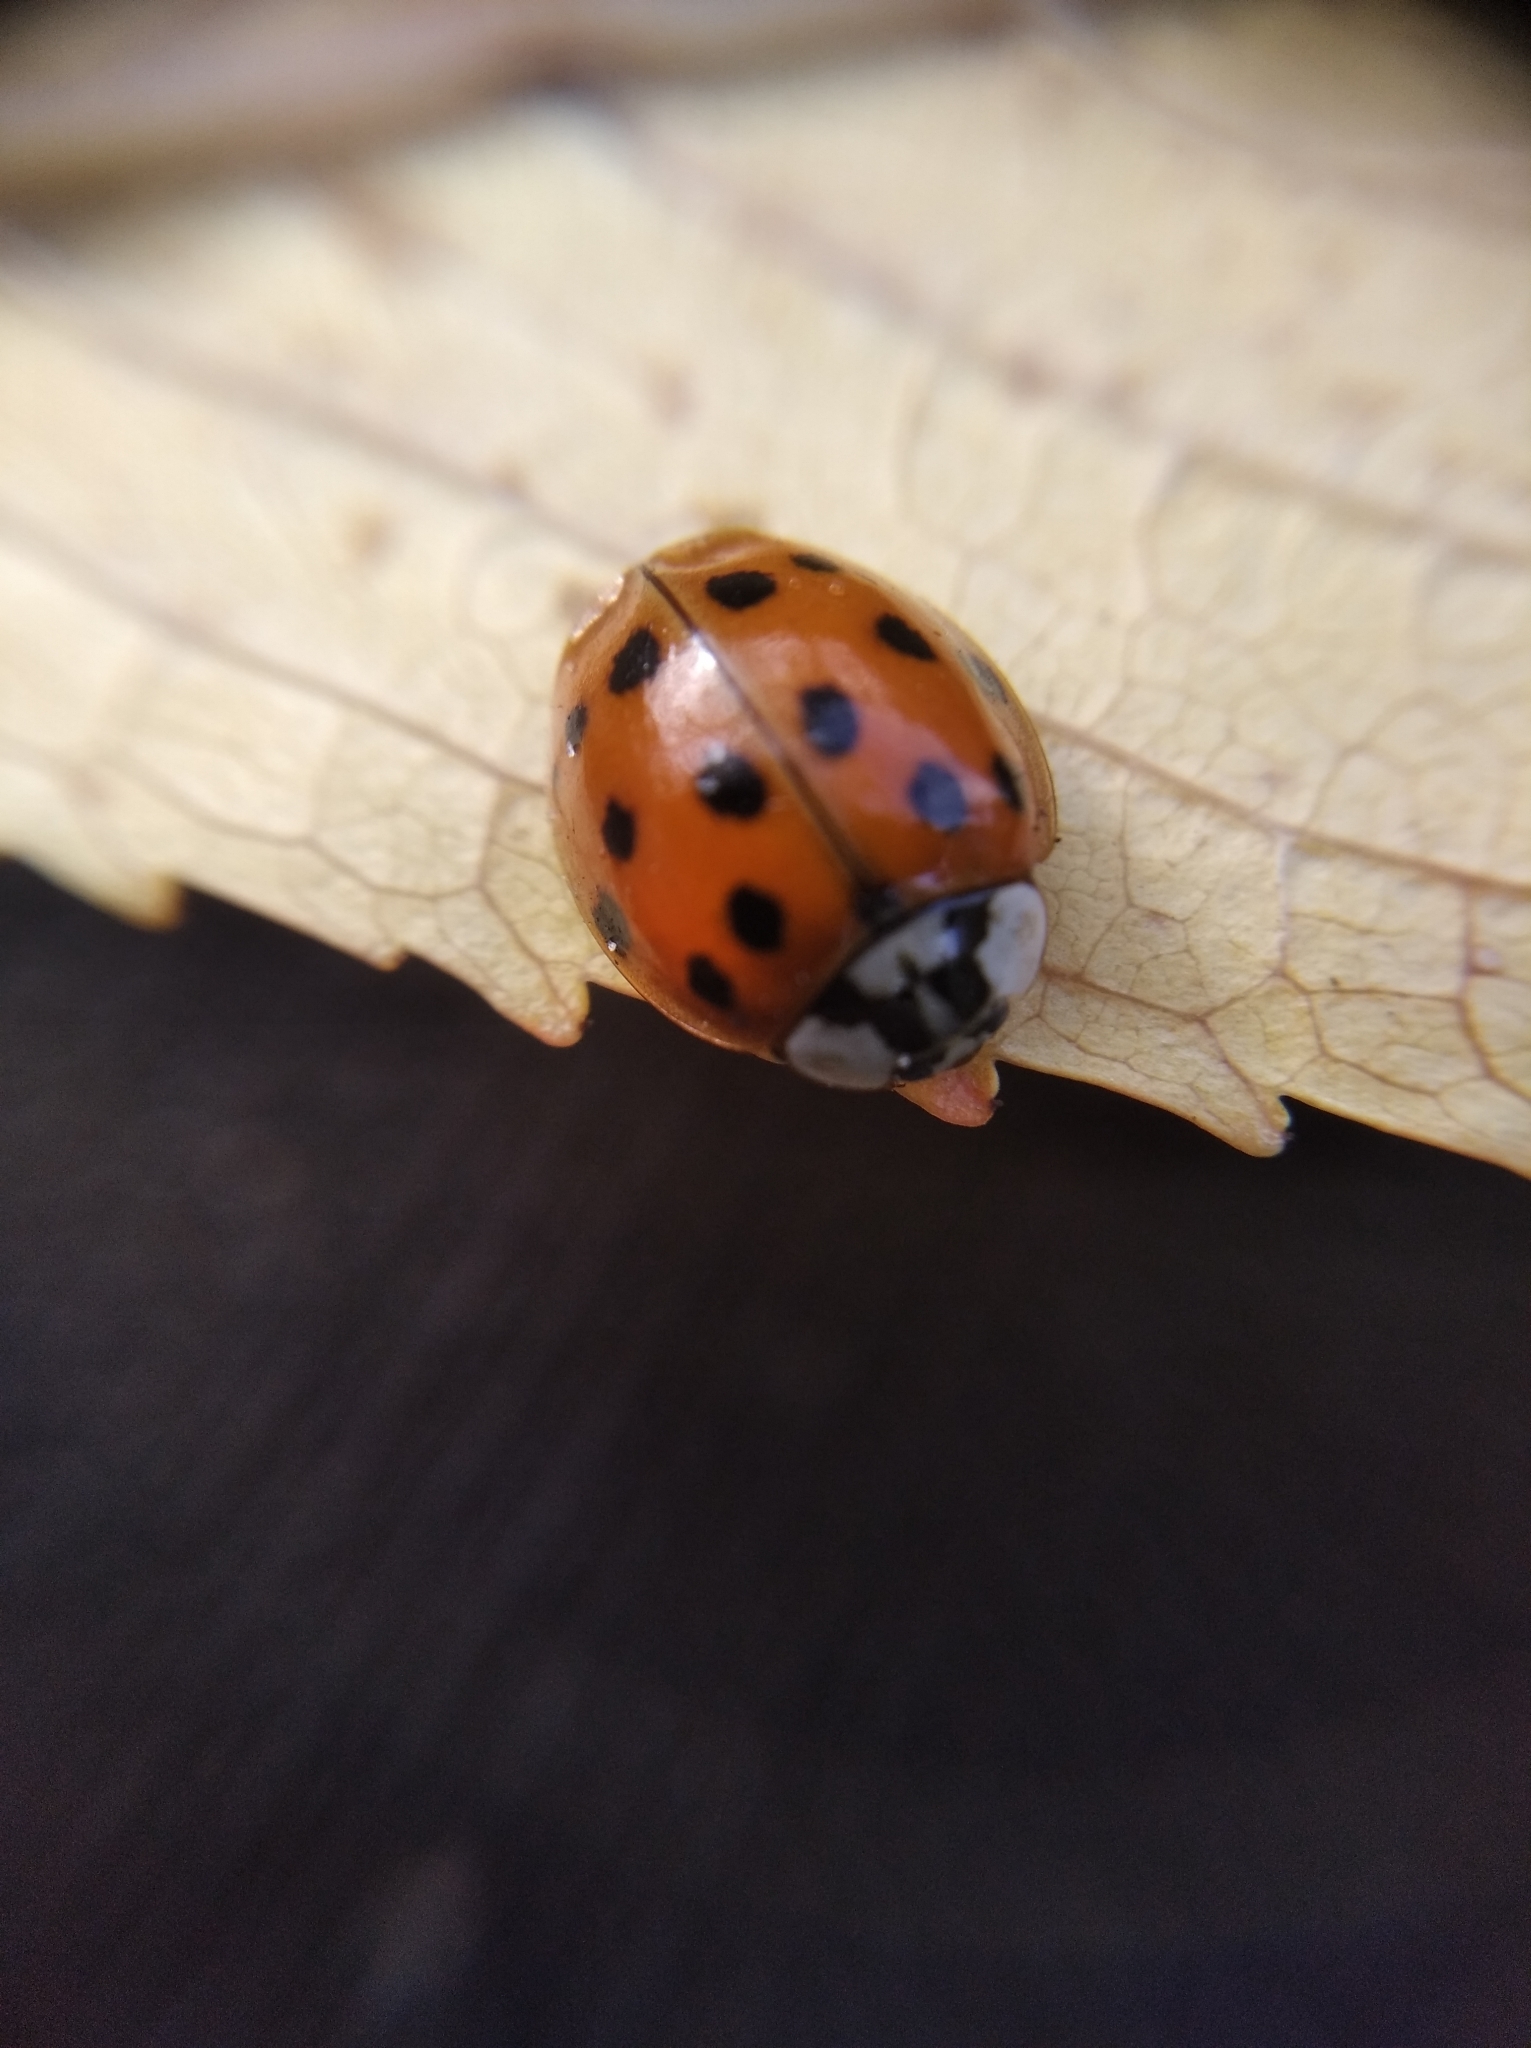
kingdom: Animalia
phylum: Arthropoda
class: Insecta
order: Coleoptera
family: Coccinellidae
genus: Harmonia
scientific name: Harmonia axyridis
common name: Harlequin ladybird
